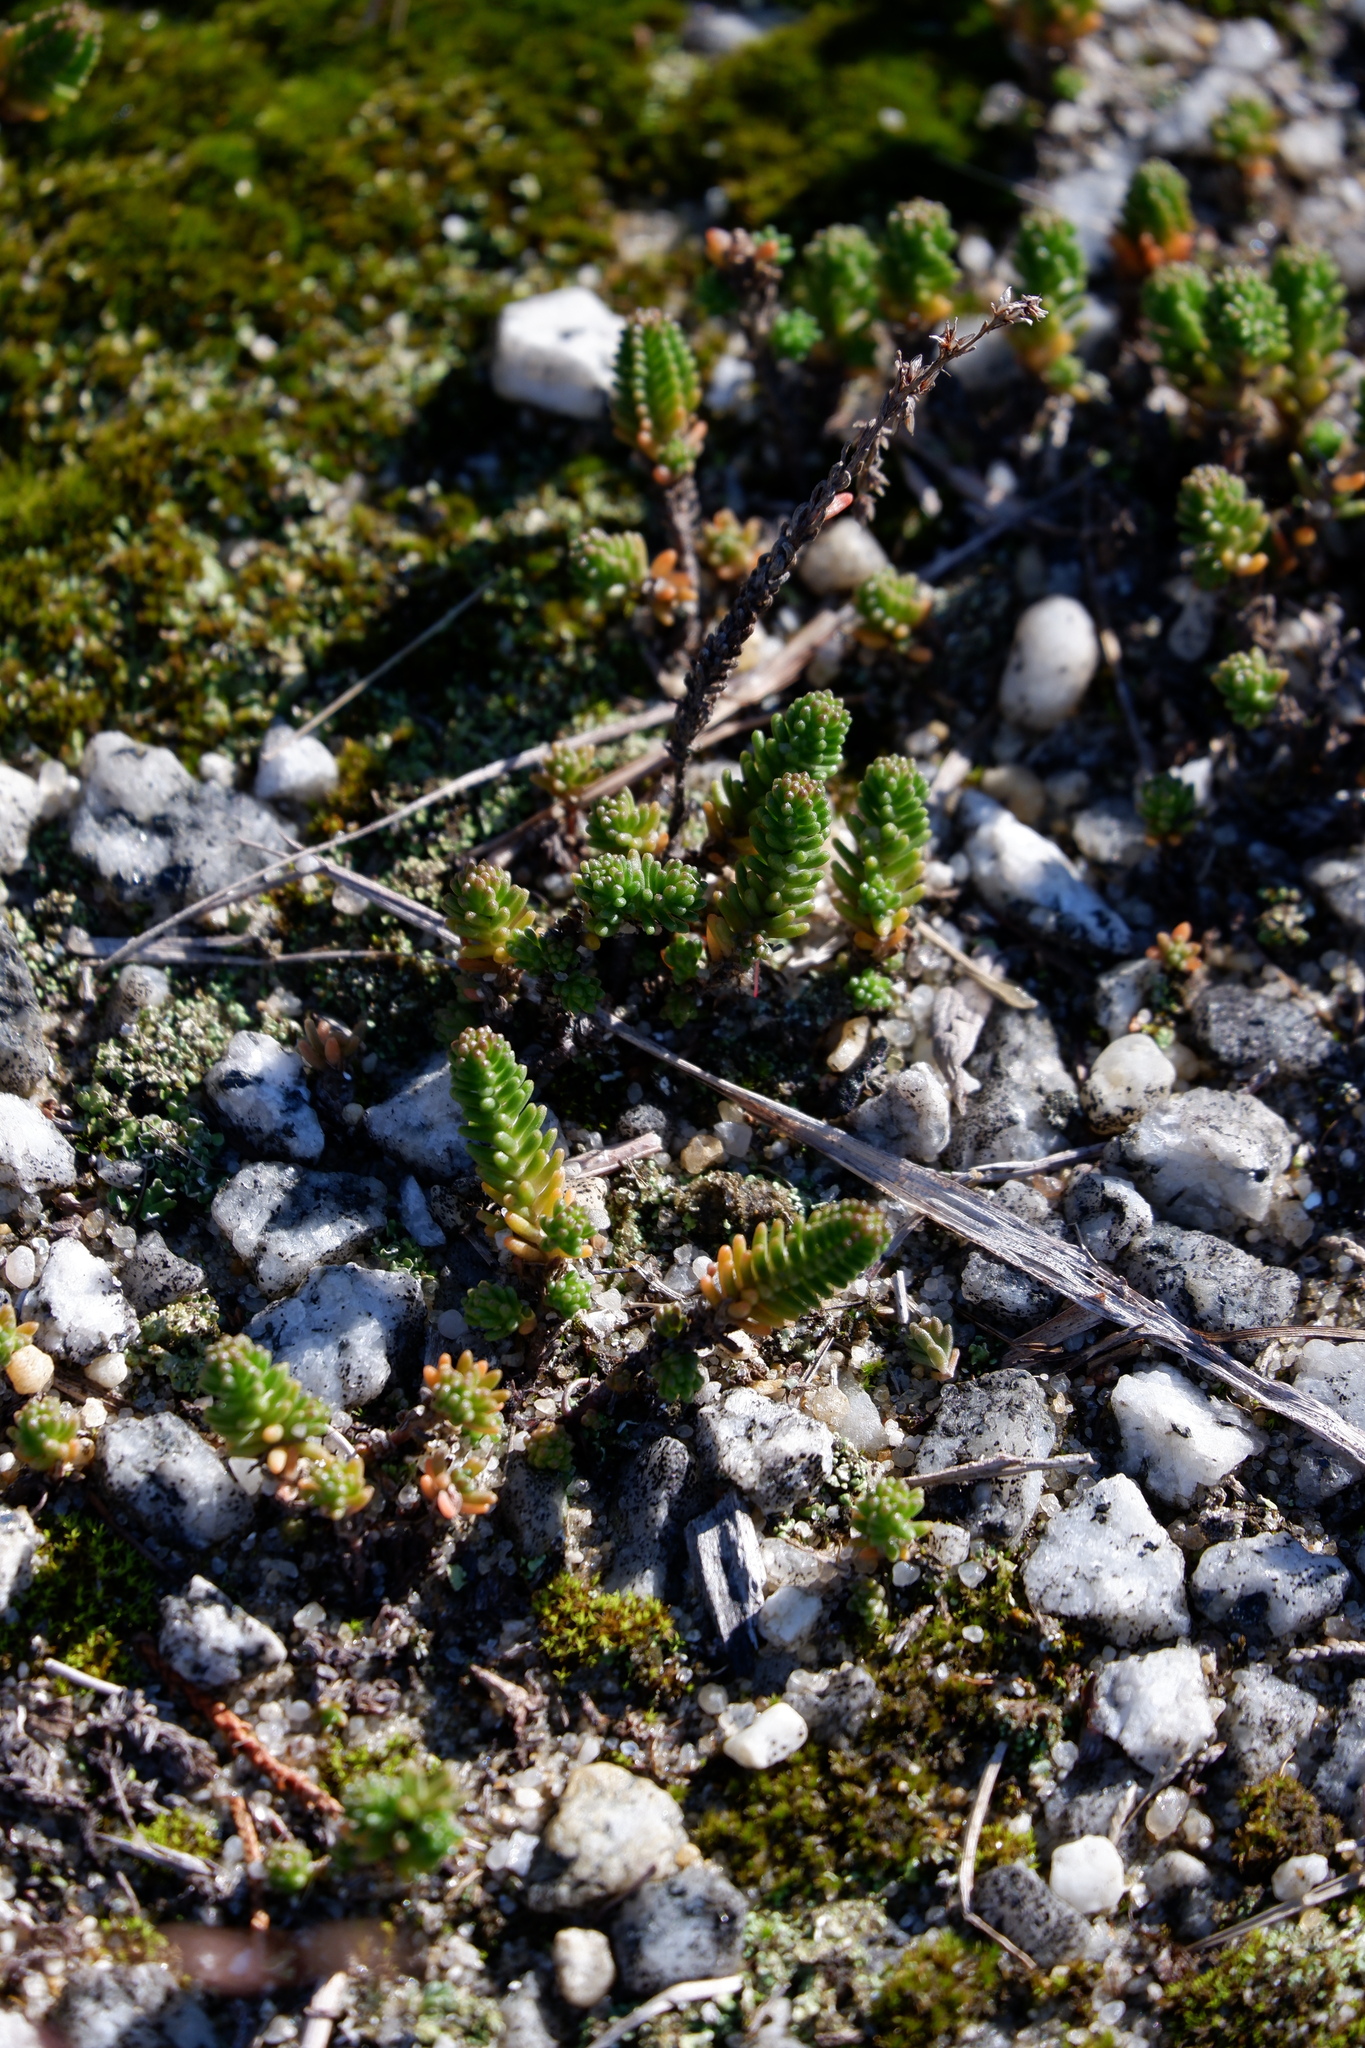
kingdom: Plantae
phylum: Tracheophyta
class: Magnoliopsida
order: Saxifragales
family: Crassulaceae
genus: Sedum
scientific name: Sedum sexangulare
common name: Tasteless stonecrop
